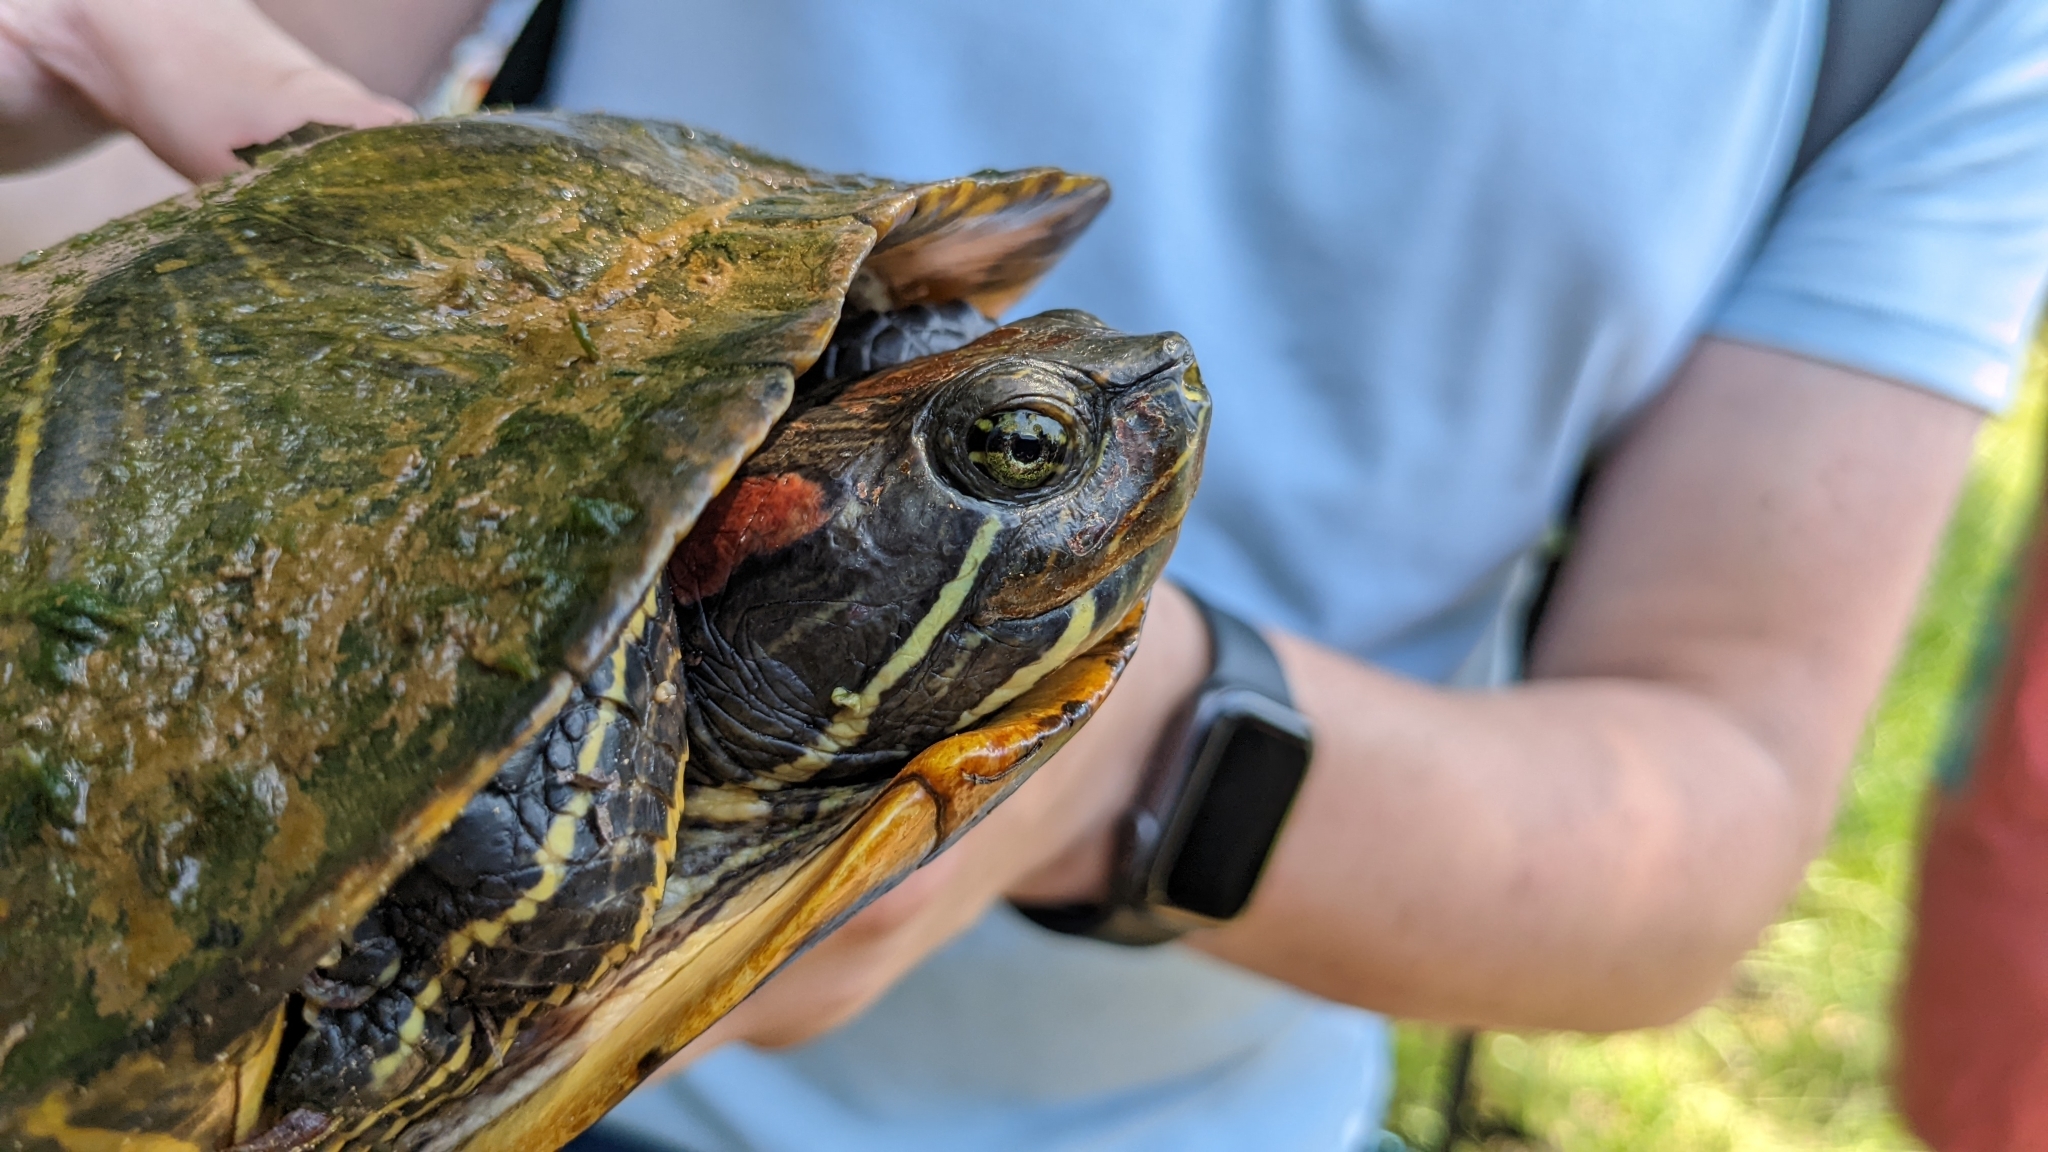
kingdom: Animalia
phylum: Chordata
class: Testudines
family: Emydidae
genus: Trachemys
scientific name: Trachemys scripta
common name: Slider
